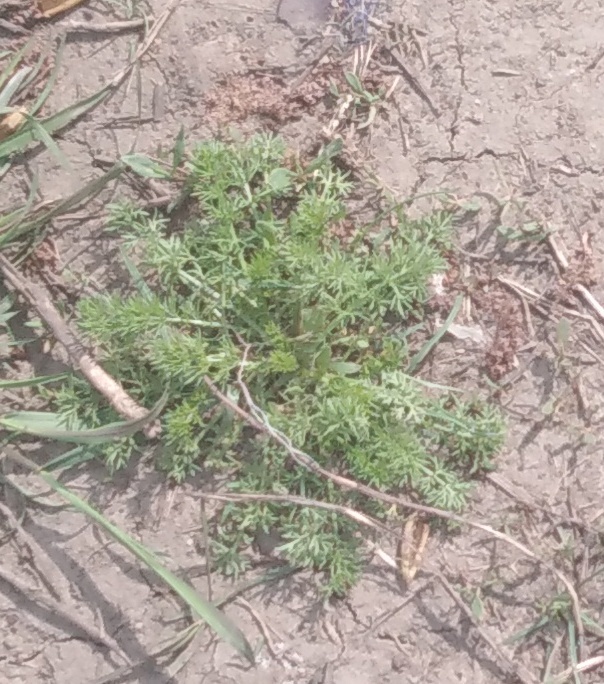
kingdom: Plantae
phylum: Tracheophyta
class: Magnoliopsida
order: Asterales
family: Asteraceae
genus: Tripleurospermum
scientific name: Tripleurospermum inodorum
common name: Scentless mayweed
